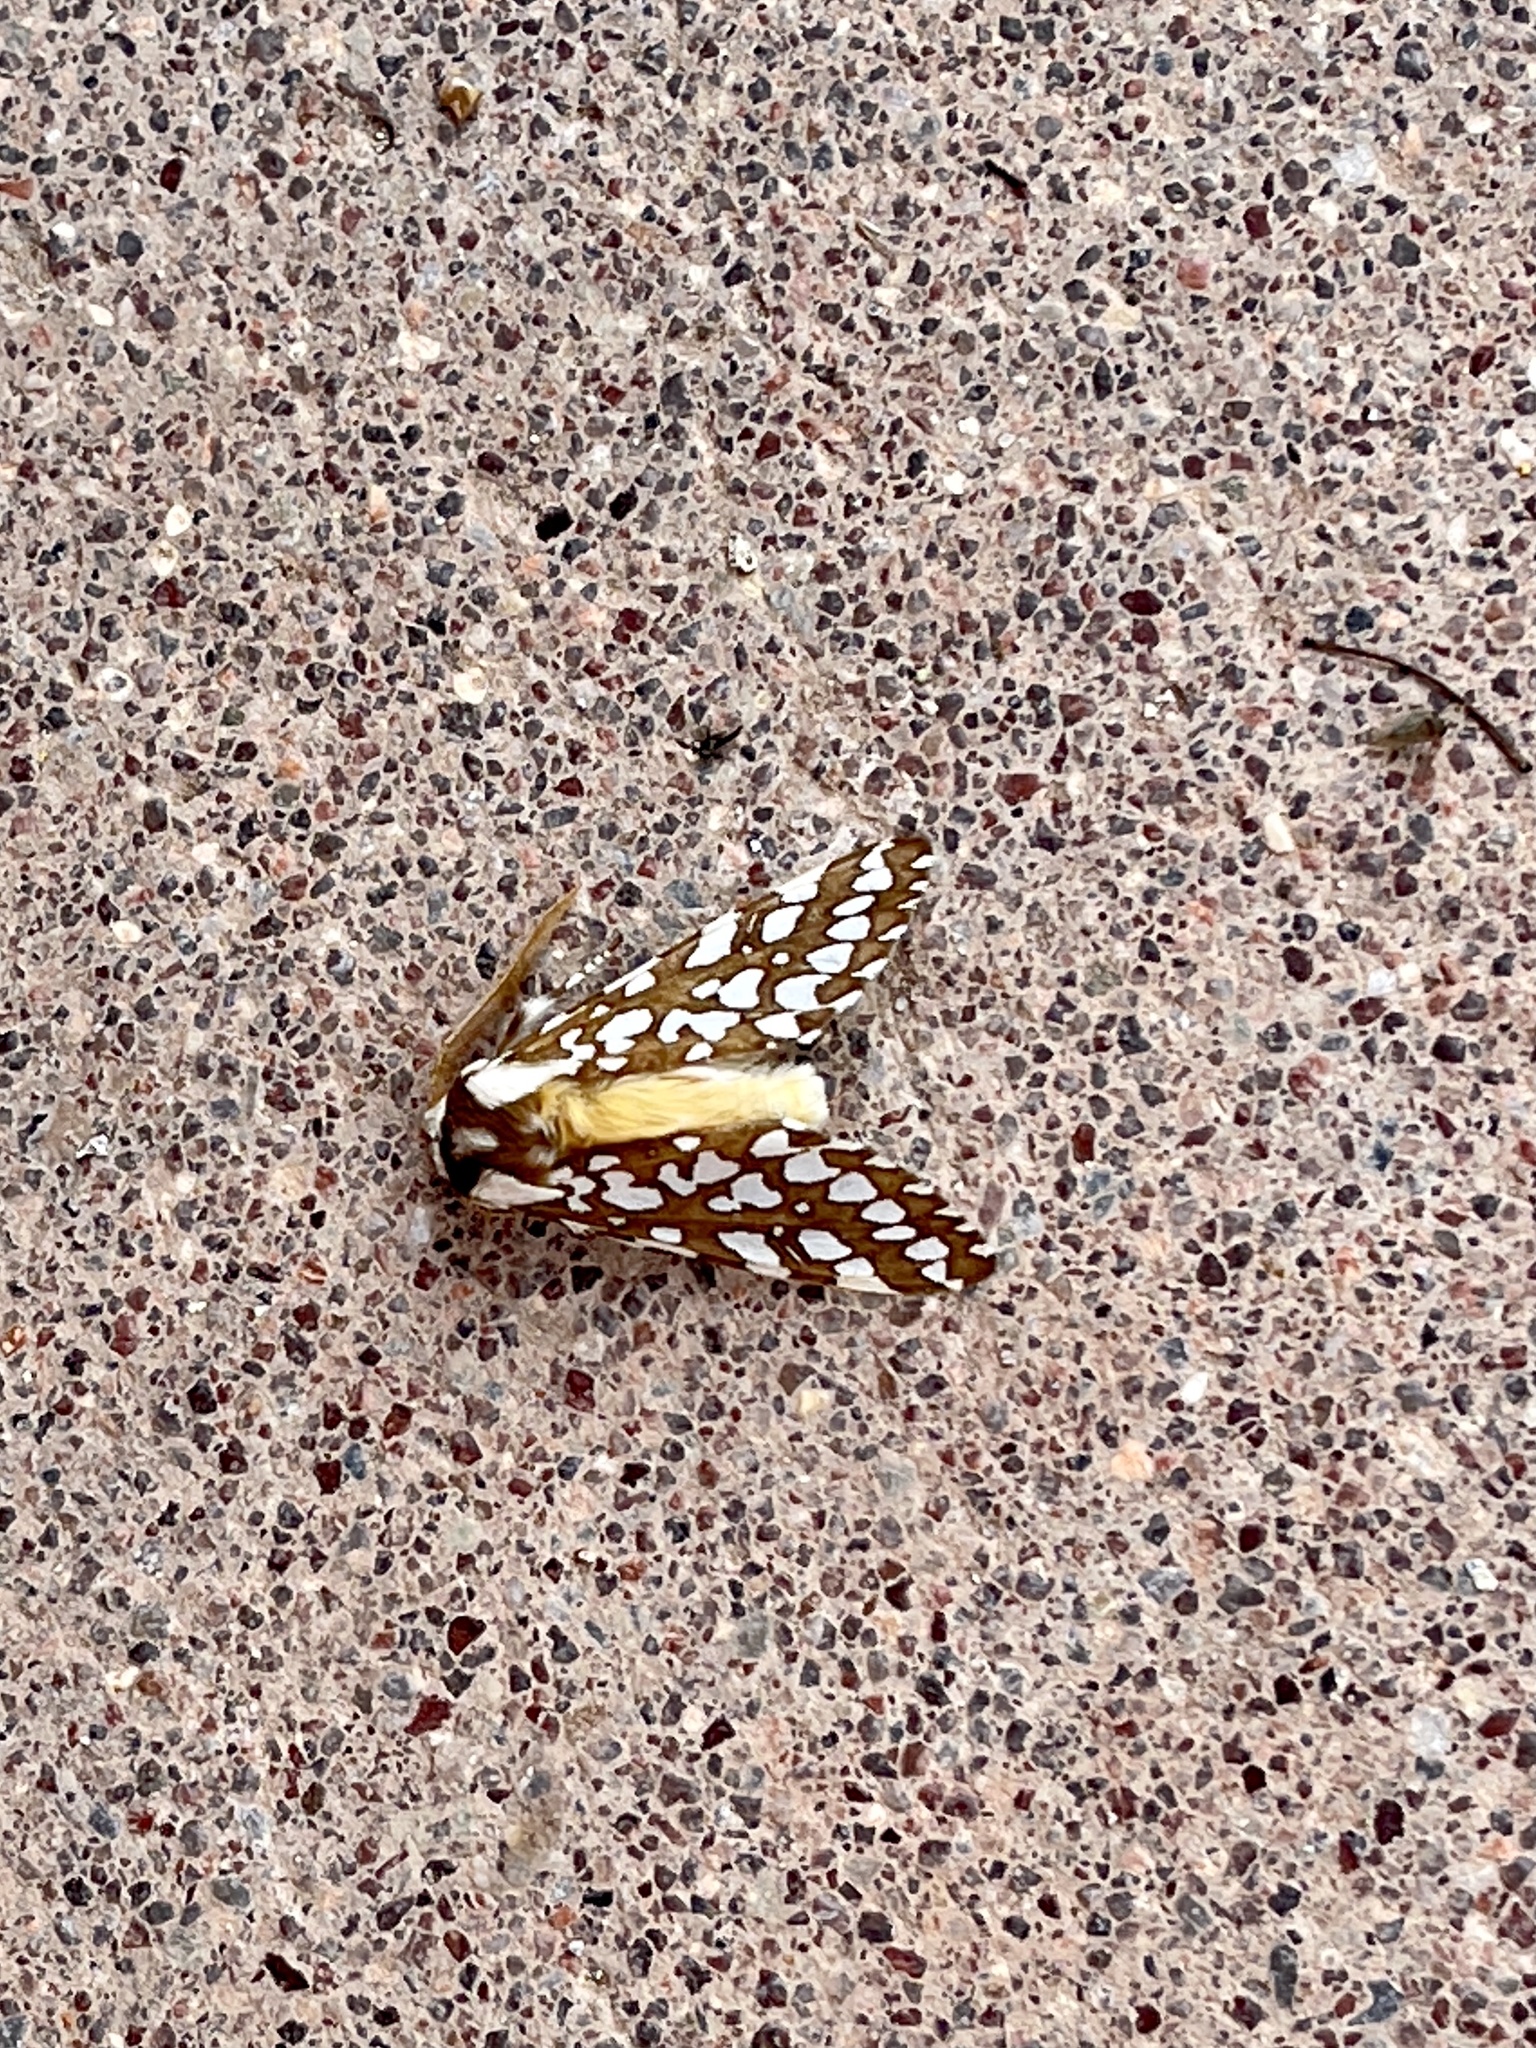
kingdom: Animalia
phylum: Arthropoda
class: Insecta
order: Lepidoptera
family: Erebidae
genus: Lophocampa
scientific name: Lophocampa ingens
